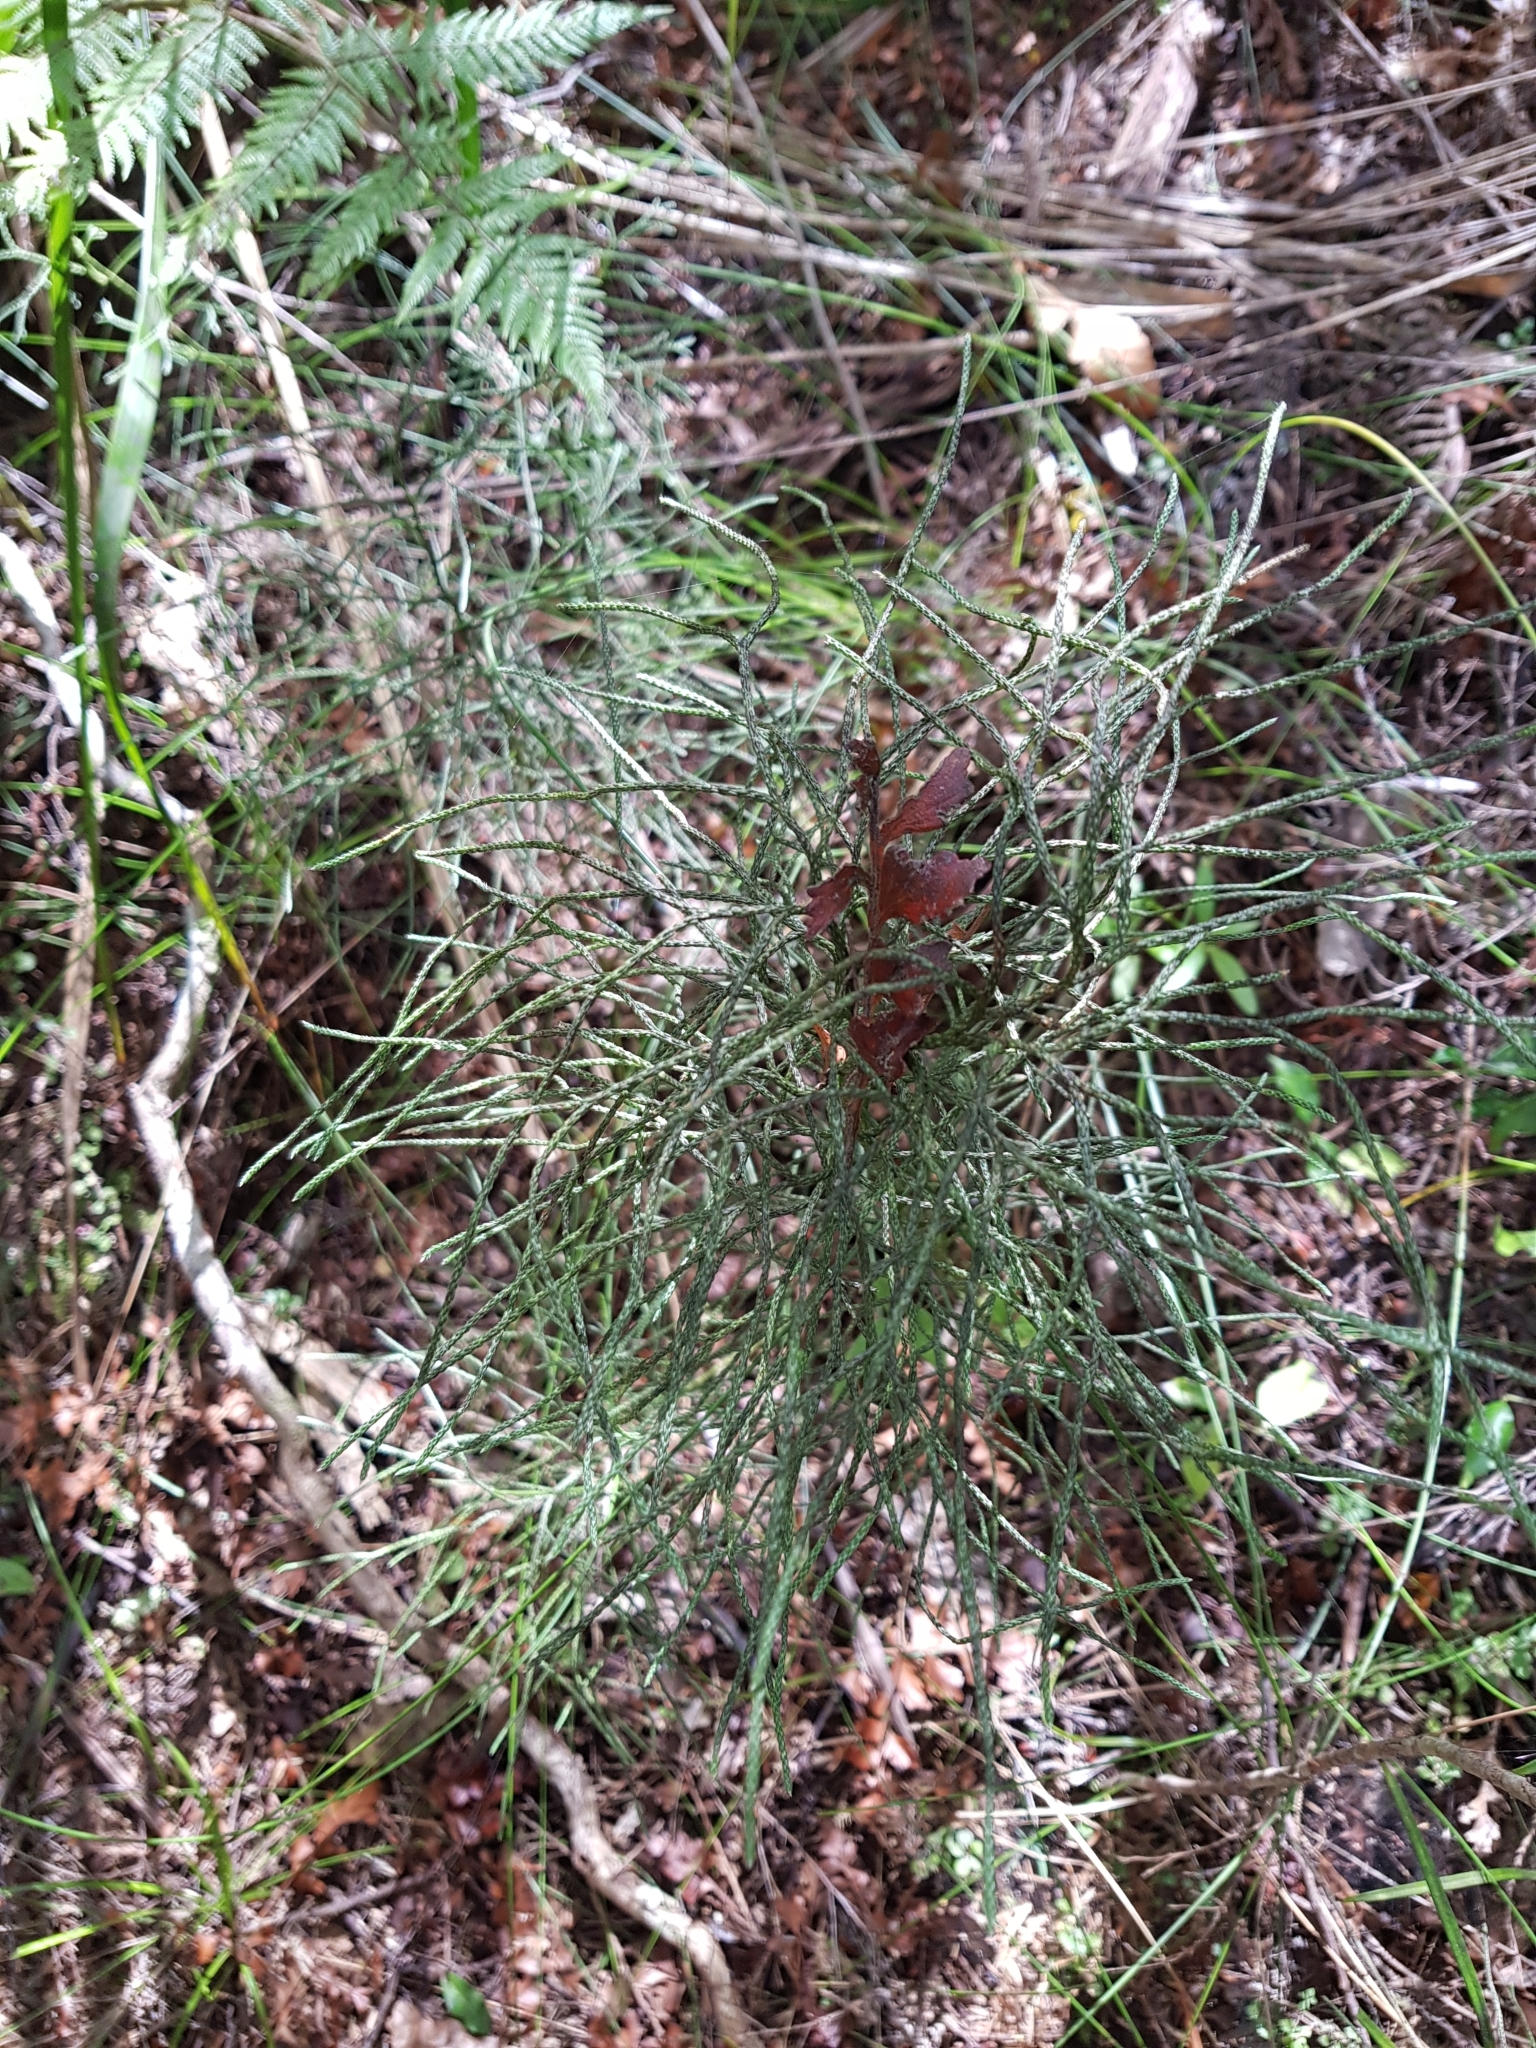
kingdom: Plantae
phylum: Tracheophyta
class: Lycopodiopsida
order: Lycopodiales
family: Lycopodiaceae
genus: Pseudolycopodium
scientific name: Pseudolycopodium densum
